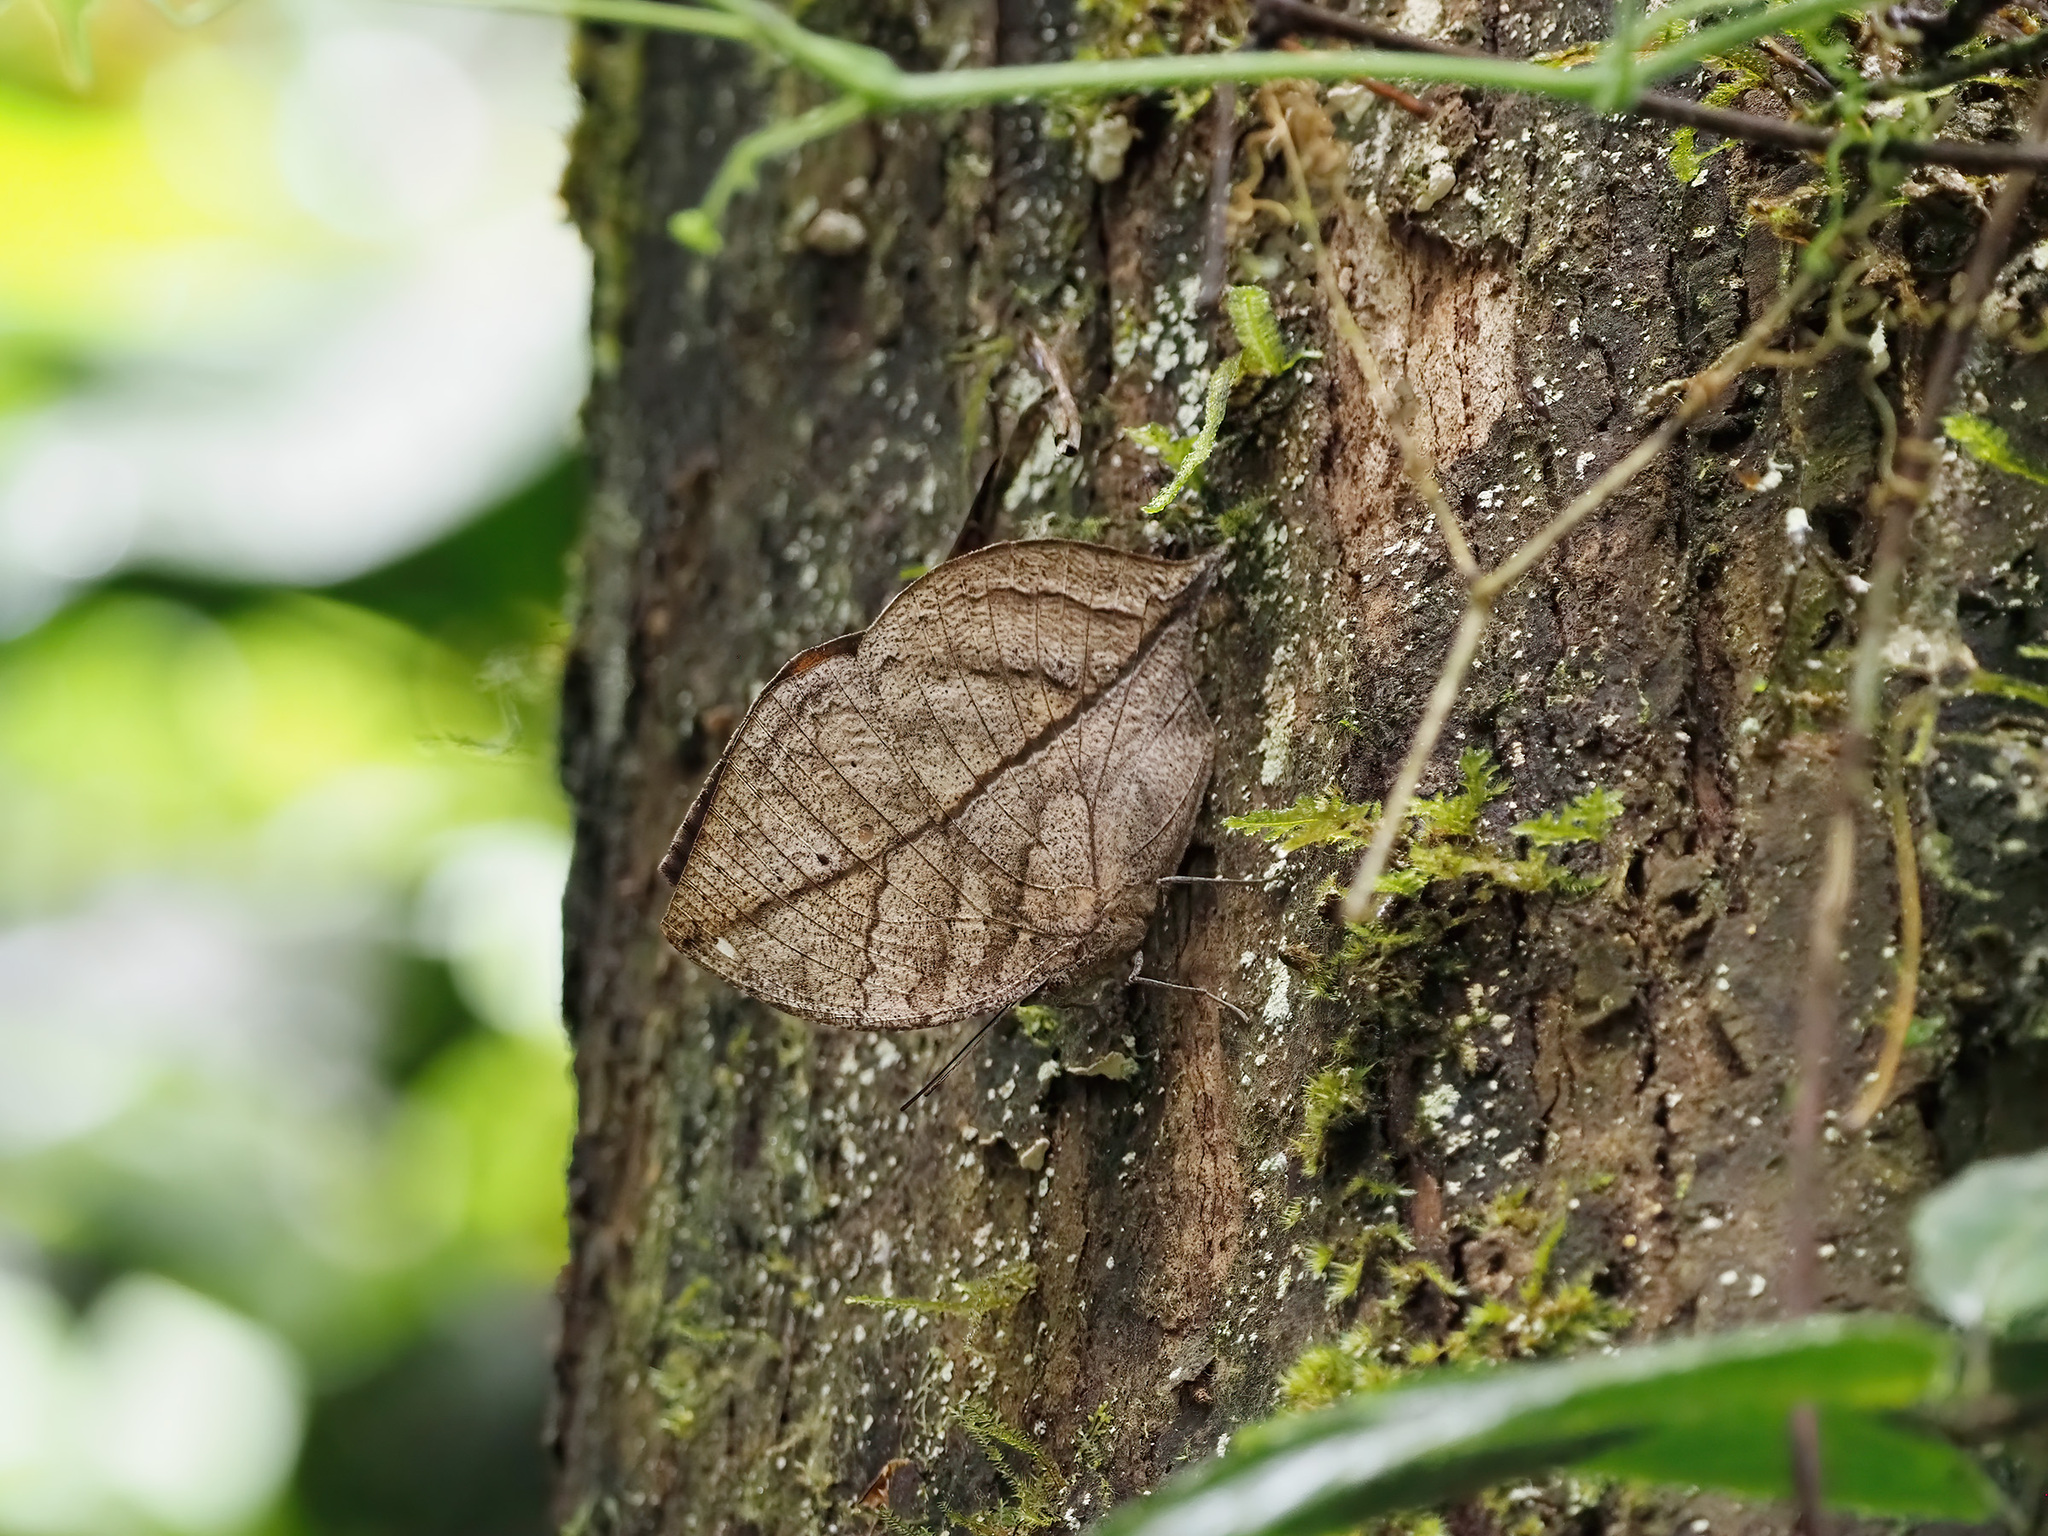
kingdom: Animalia
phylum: Arthropoda
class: Insecta
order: Lepidoptera
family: Nymphalidae
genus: Kallima
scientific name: Kallima
